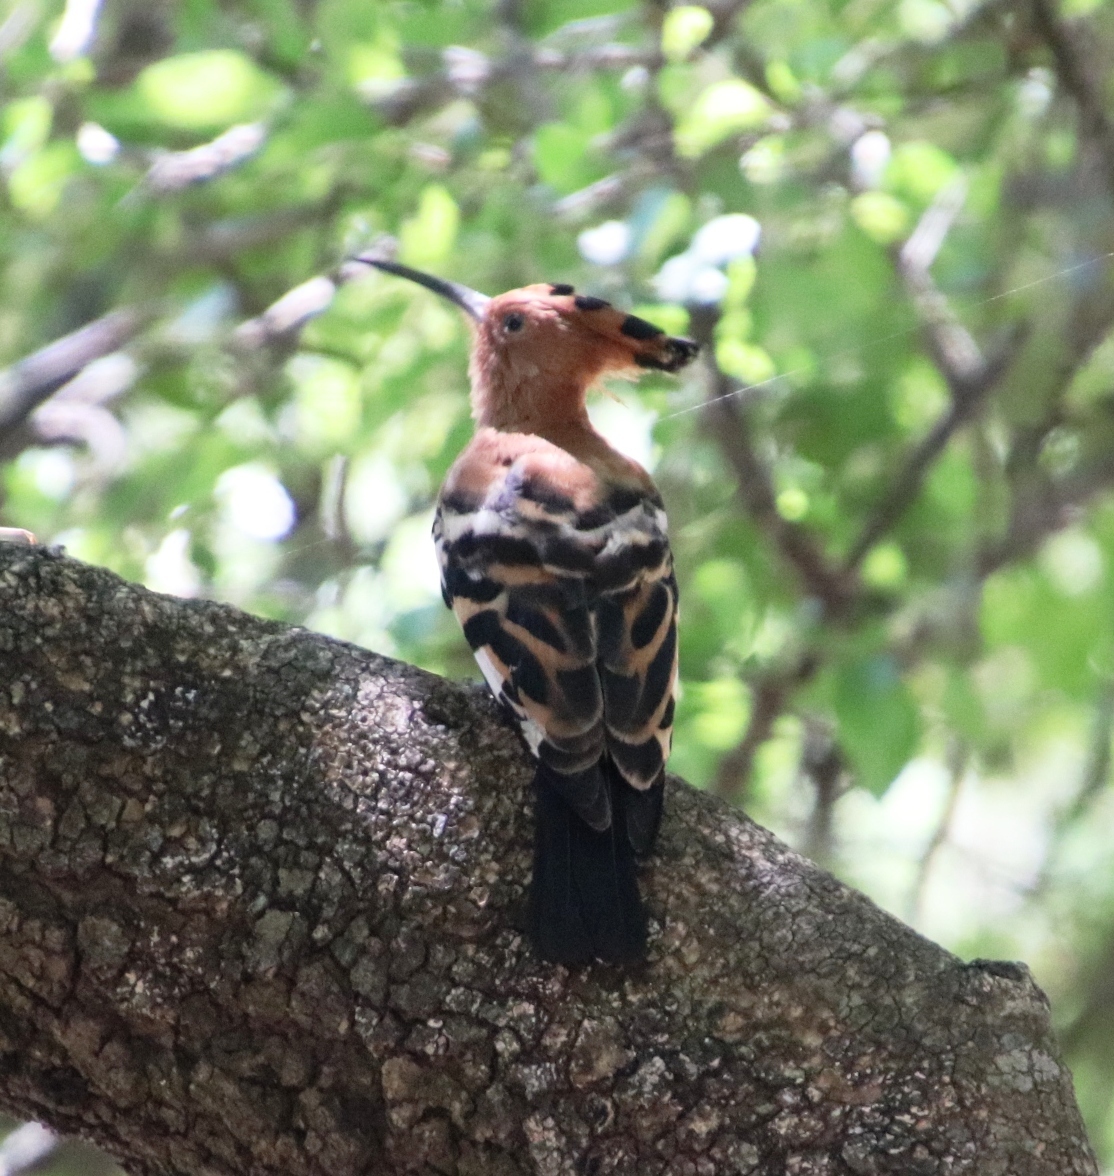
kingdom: Animalia
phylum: Chordata
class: Aves
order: Bucerotiformes
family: Upupidae
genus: Upupa
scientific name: Upupa africana
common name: African hoopoe
